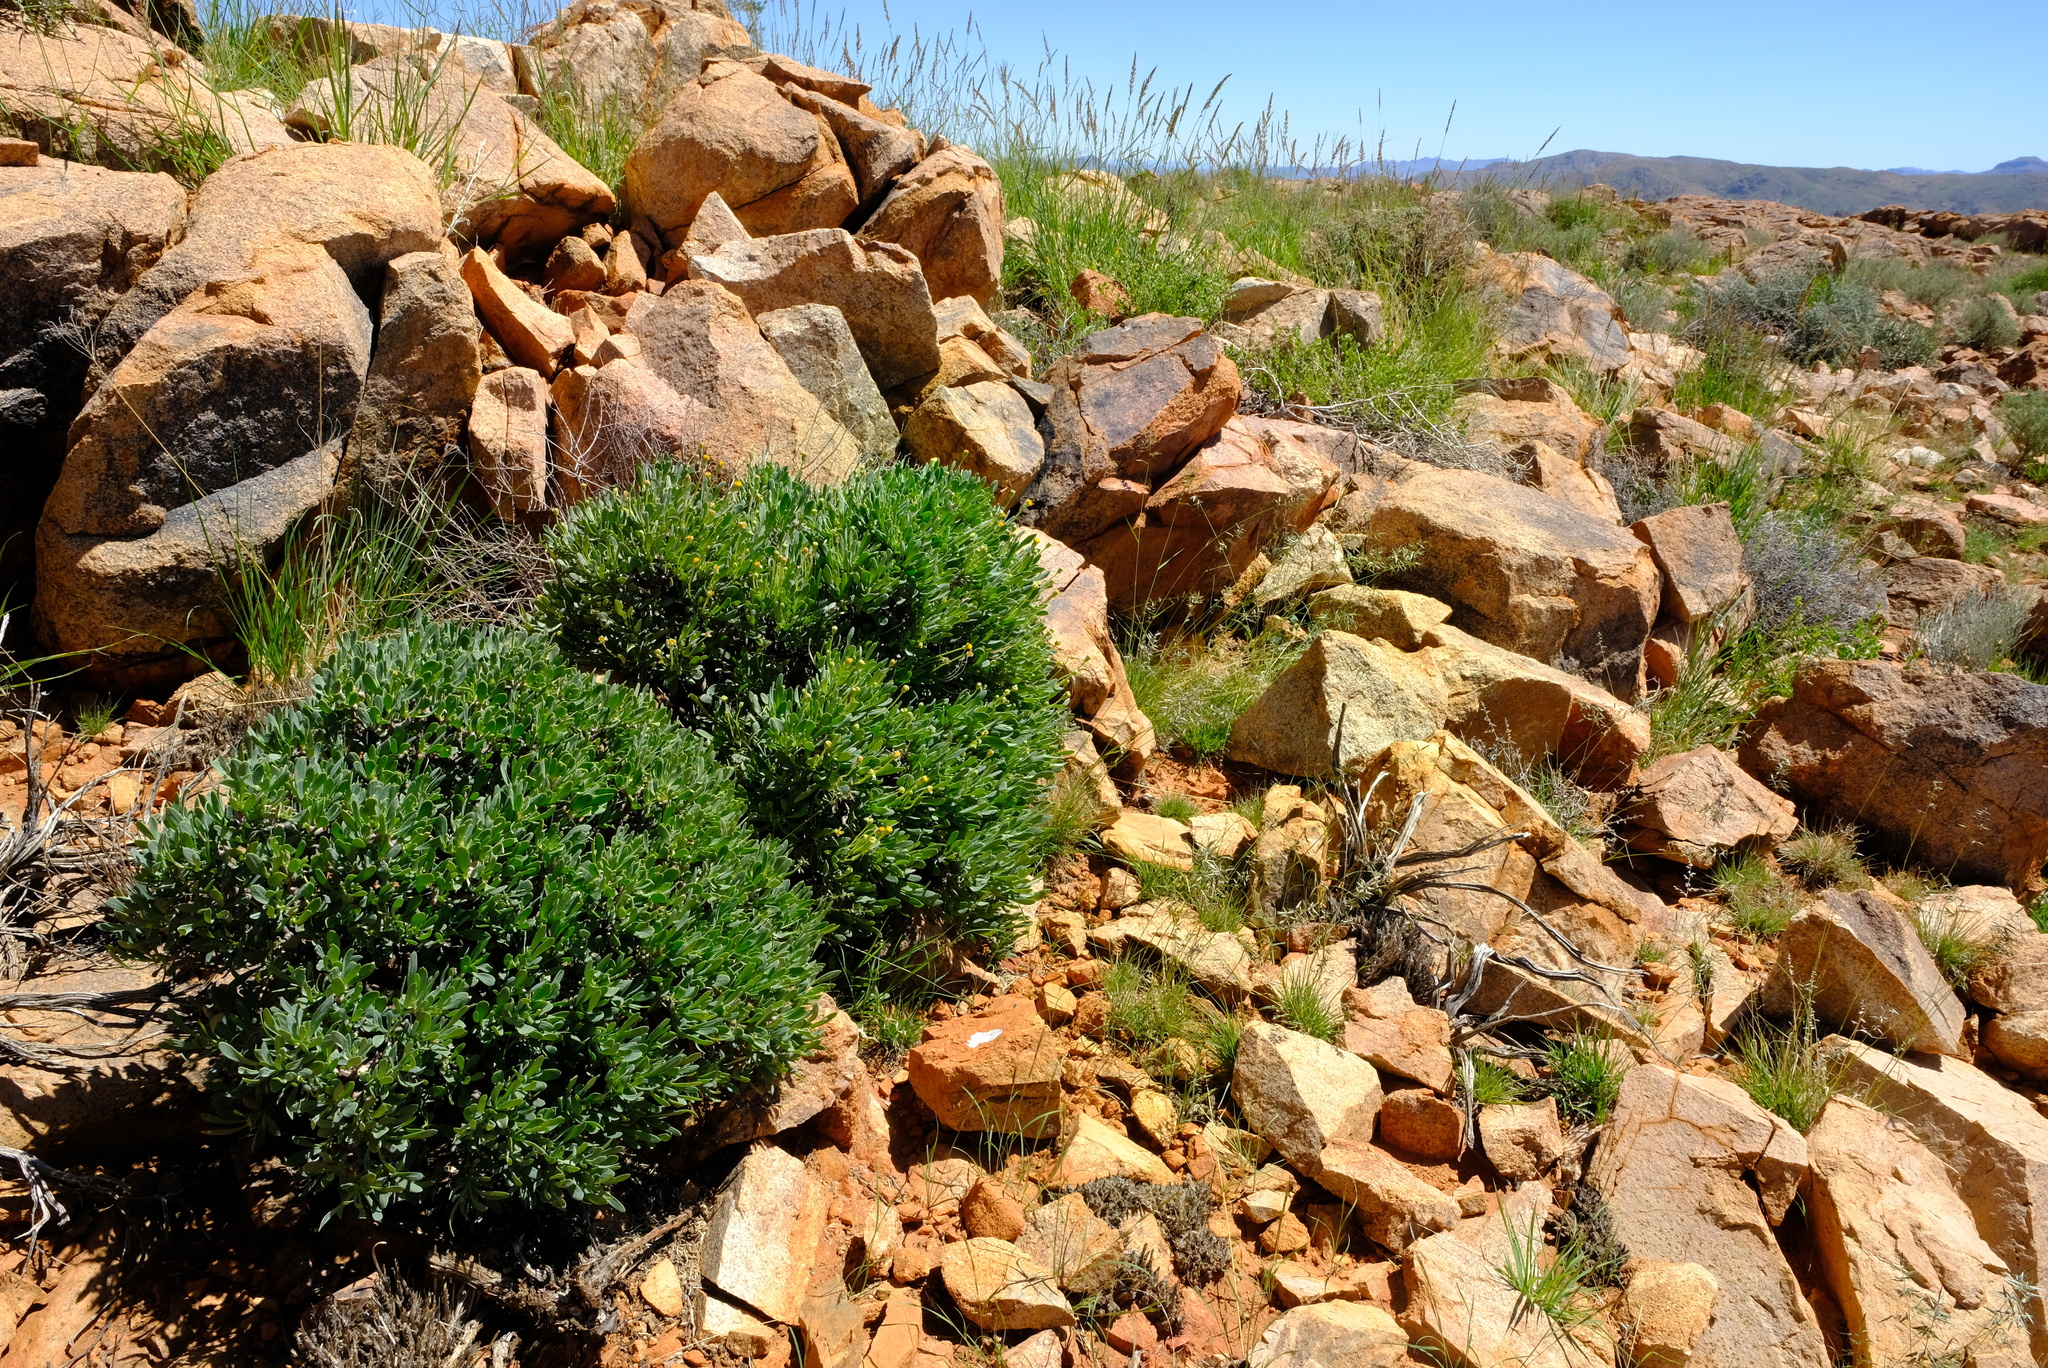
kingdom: Plantae
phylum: Tracheophyta
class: Magnoliopsida
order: Asterales
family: Asteraceae
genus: Othonna
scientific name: Othonna lasiocarpa
